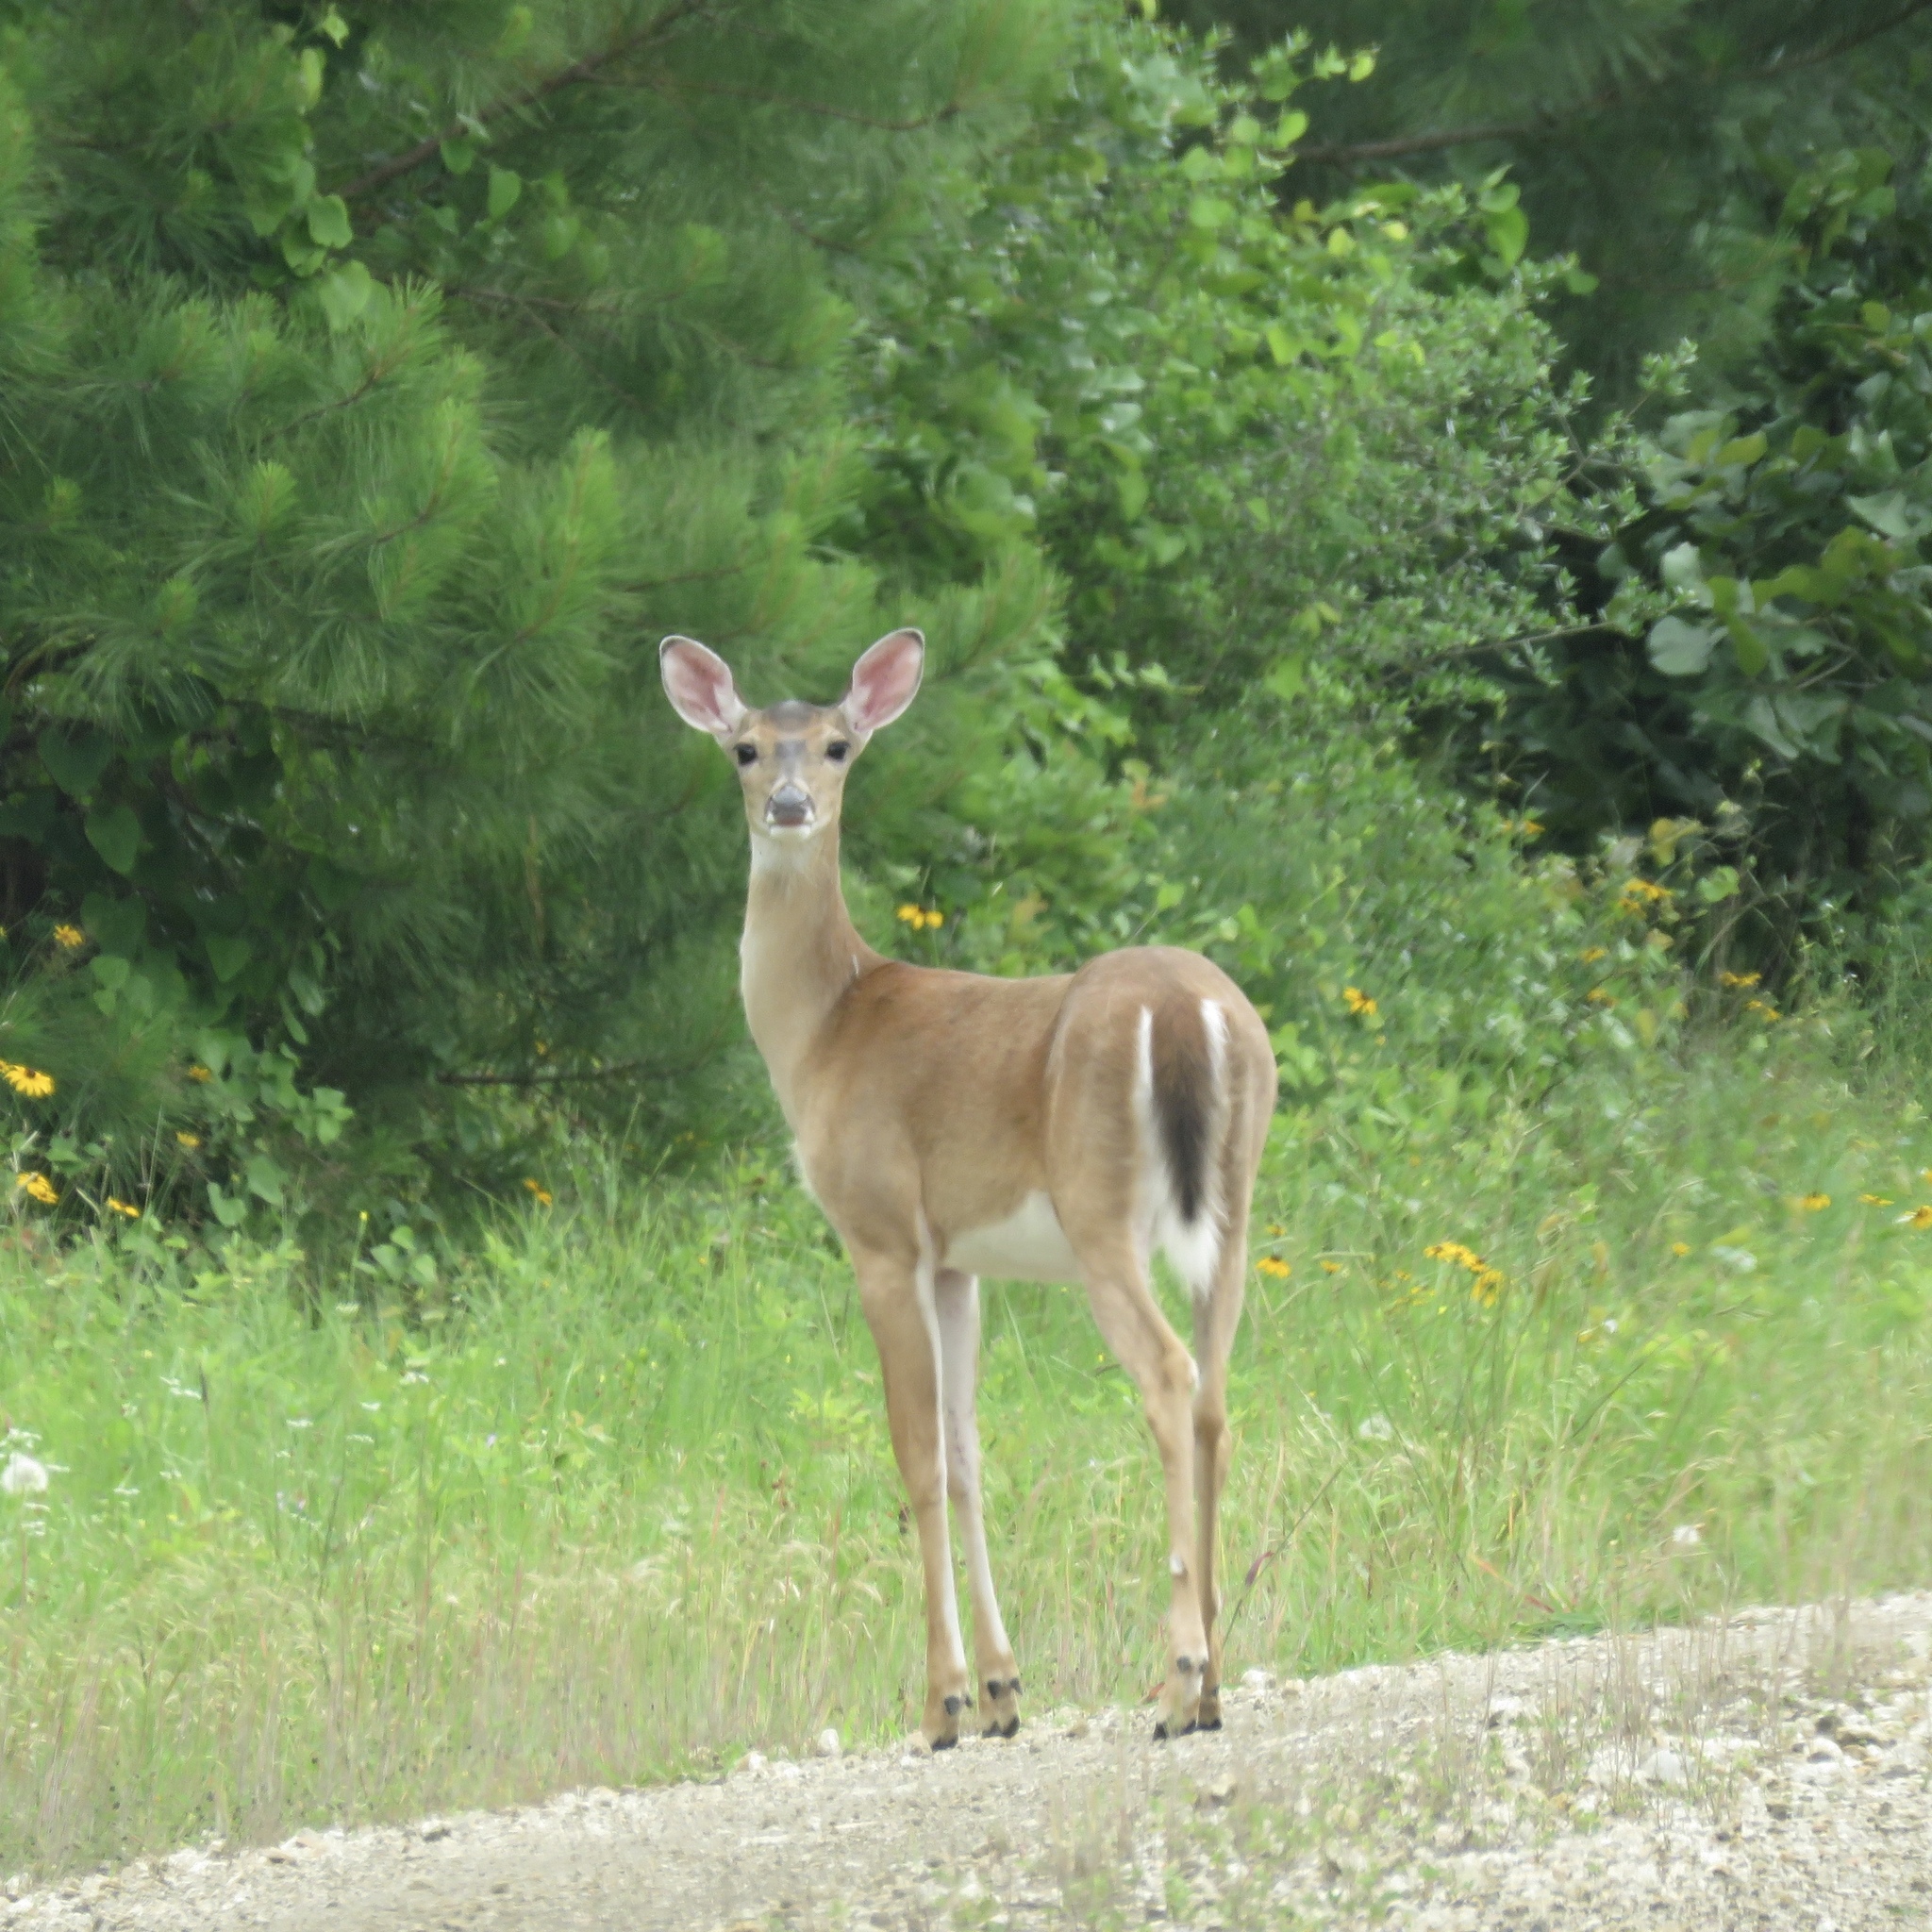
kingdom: Animalia
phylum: Chordata
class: Mammalia
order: Artiodactyla
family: Cervidae
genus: Odocoileus
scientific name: Odocoileus virginianus
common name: White-tailed deer
